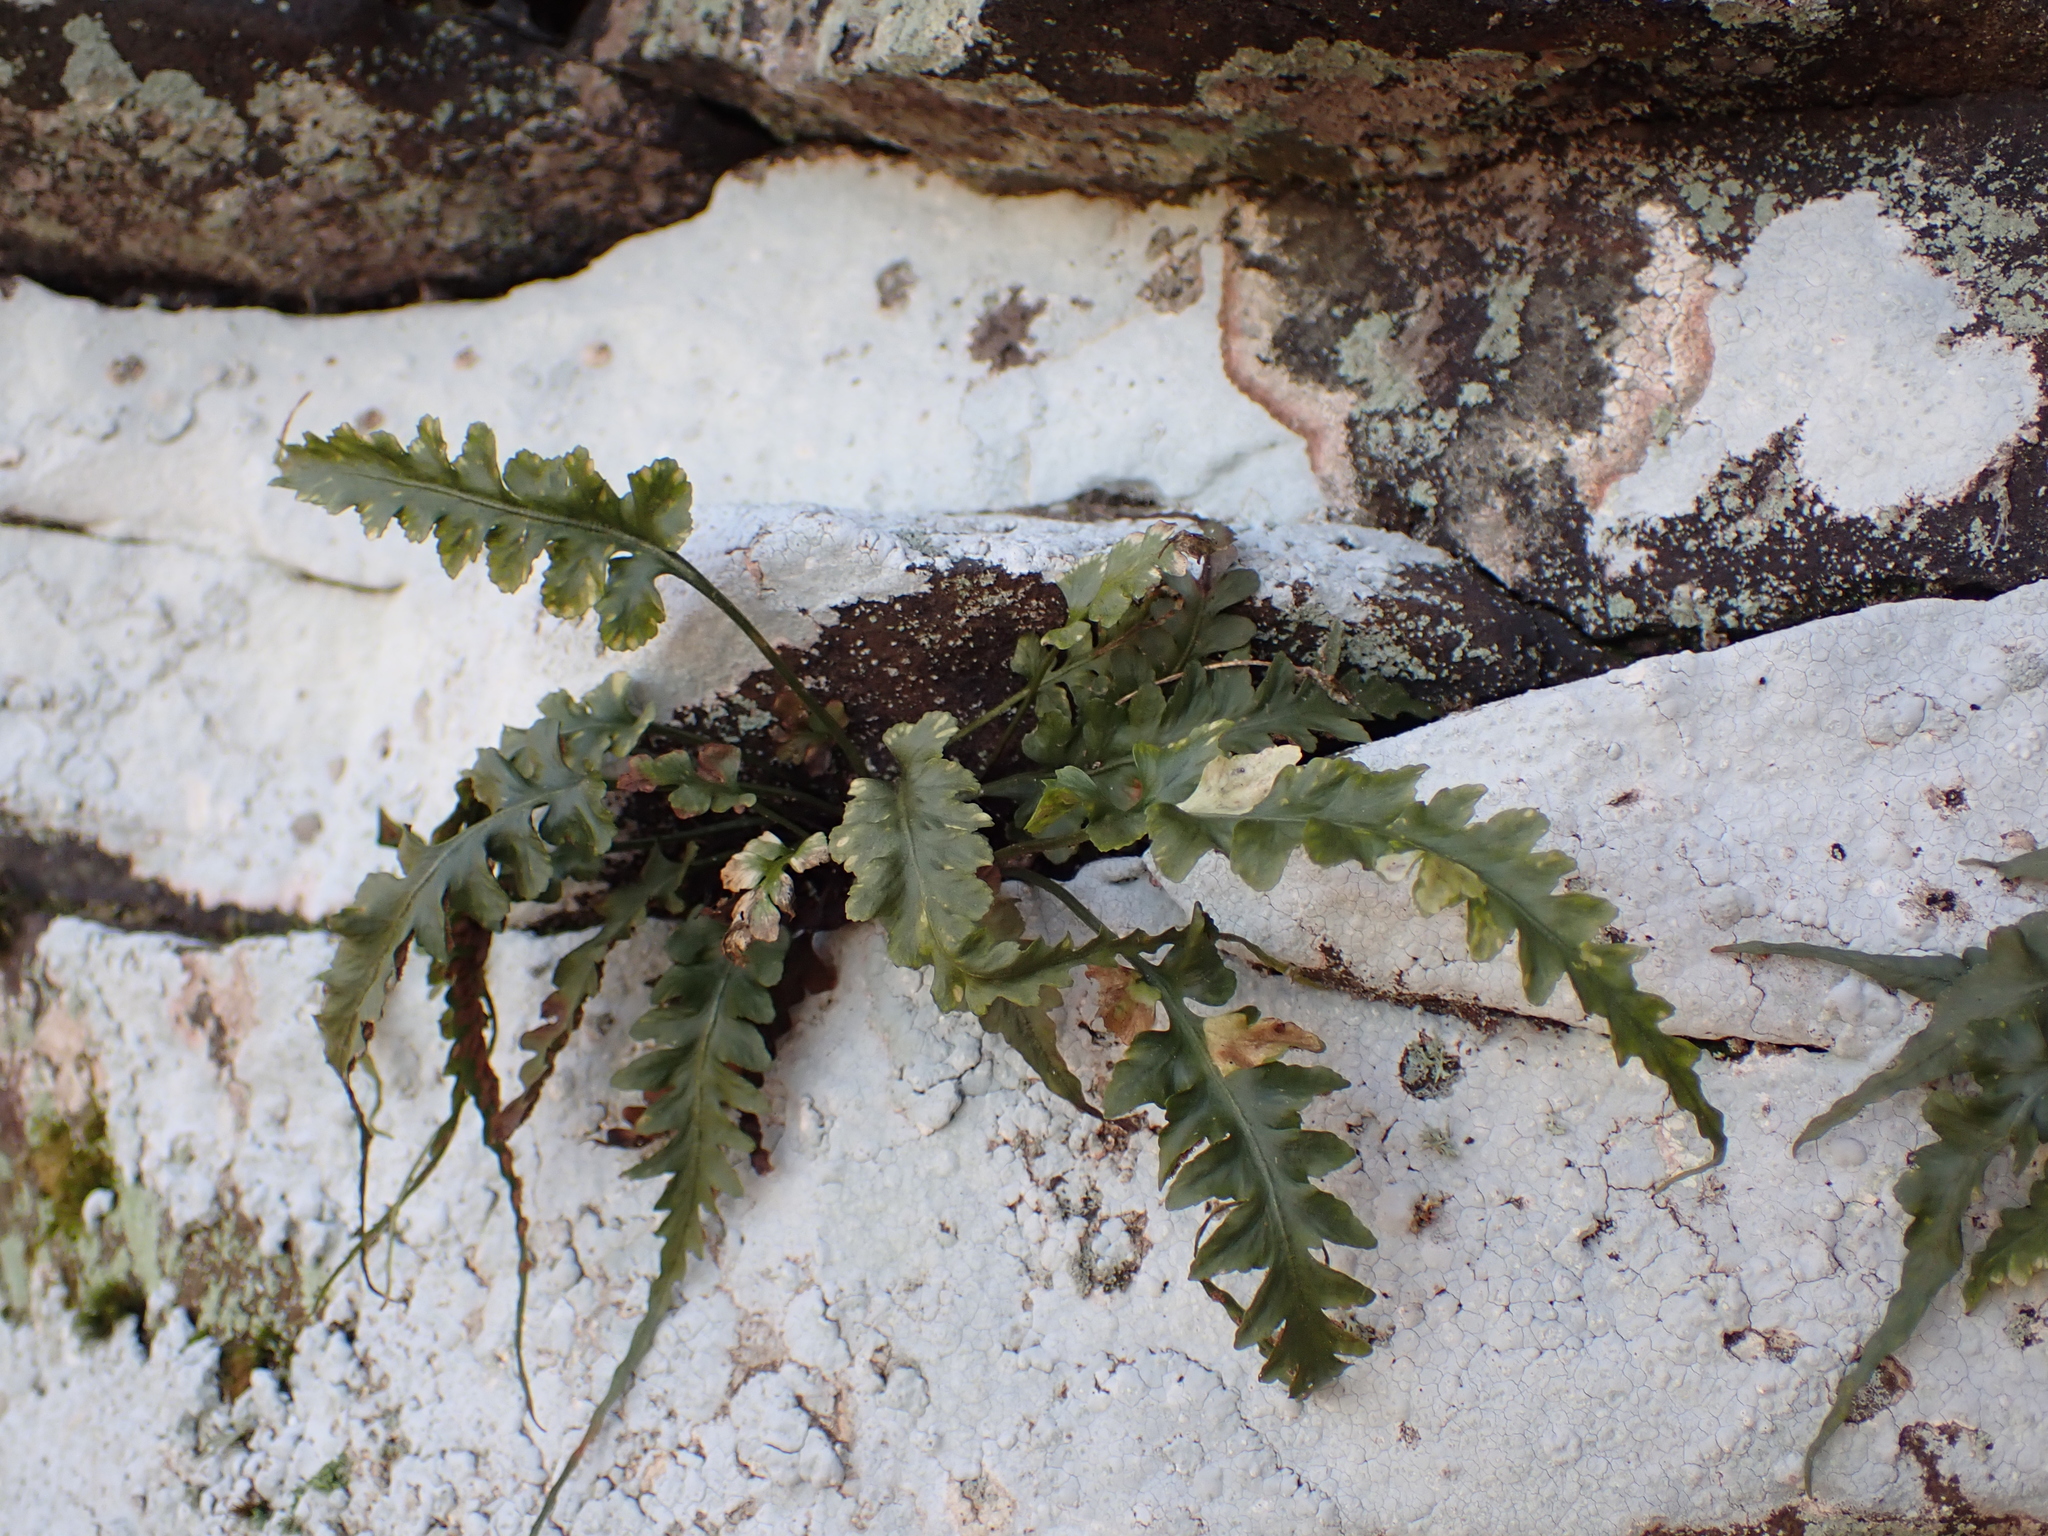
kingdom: Plantae
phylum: Tracheophyta
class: Polypodiopsida
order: Polypodiales
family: Aspleniaceae
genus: Asplenium
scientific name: Asplenium pinnatifidum
